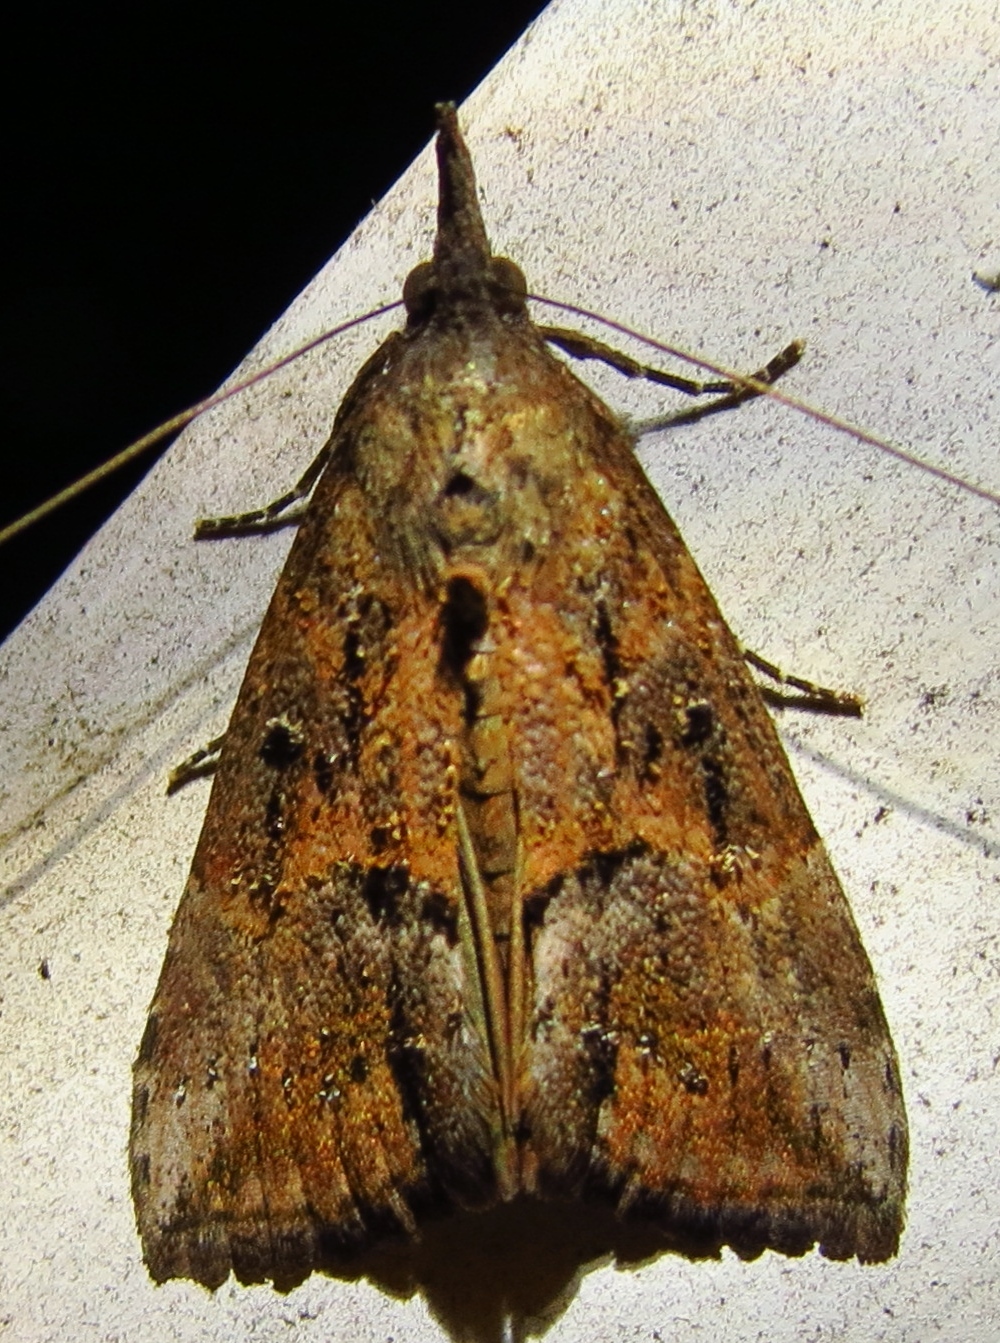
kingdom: Animalia
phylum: Arthropoda
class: Insecta
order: Lepidoptera
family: Erebidae
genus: Hypena
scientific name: Hypena scabra
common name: Green cloverworm
